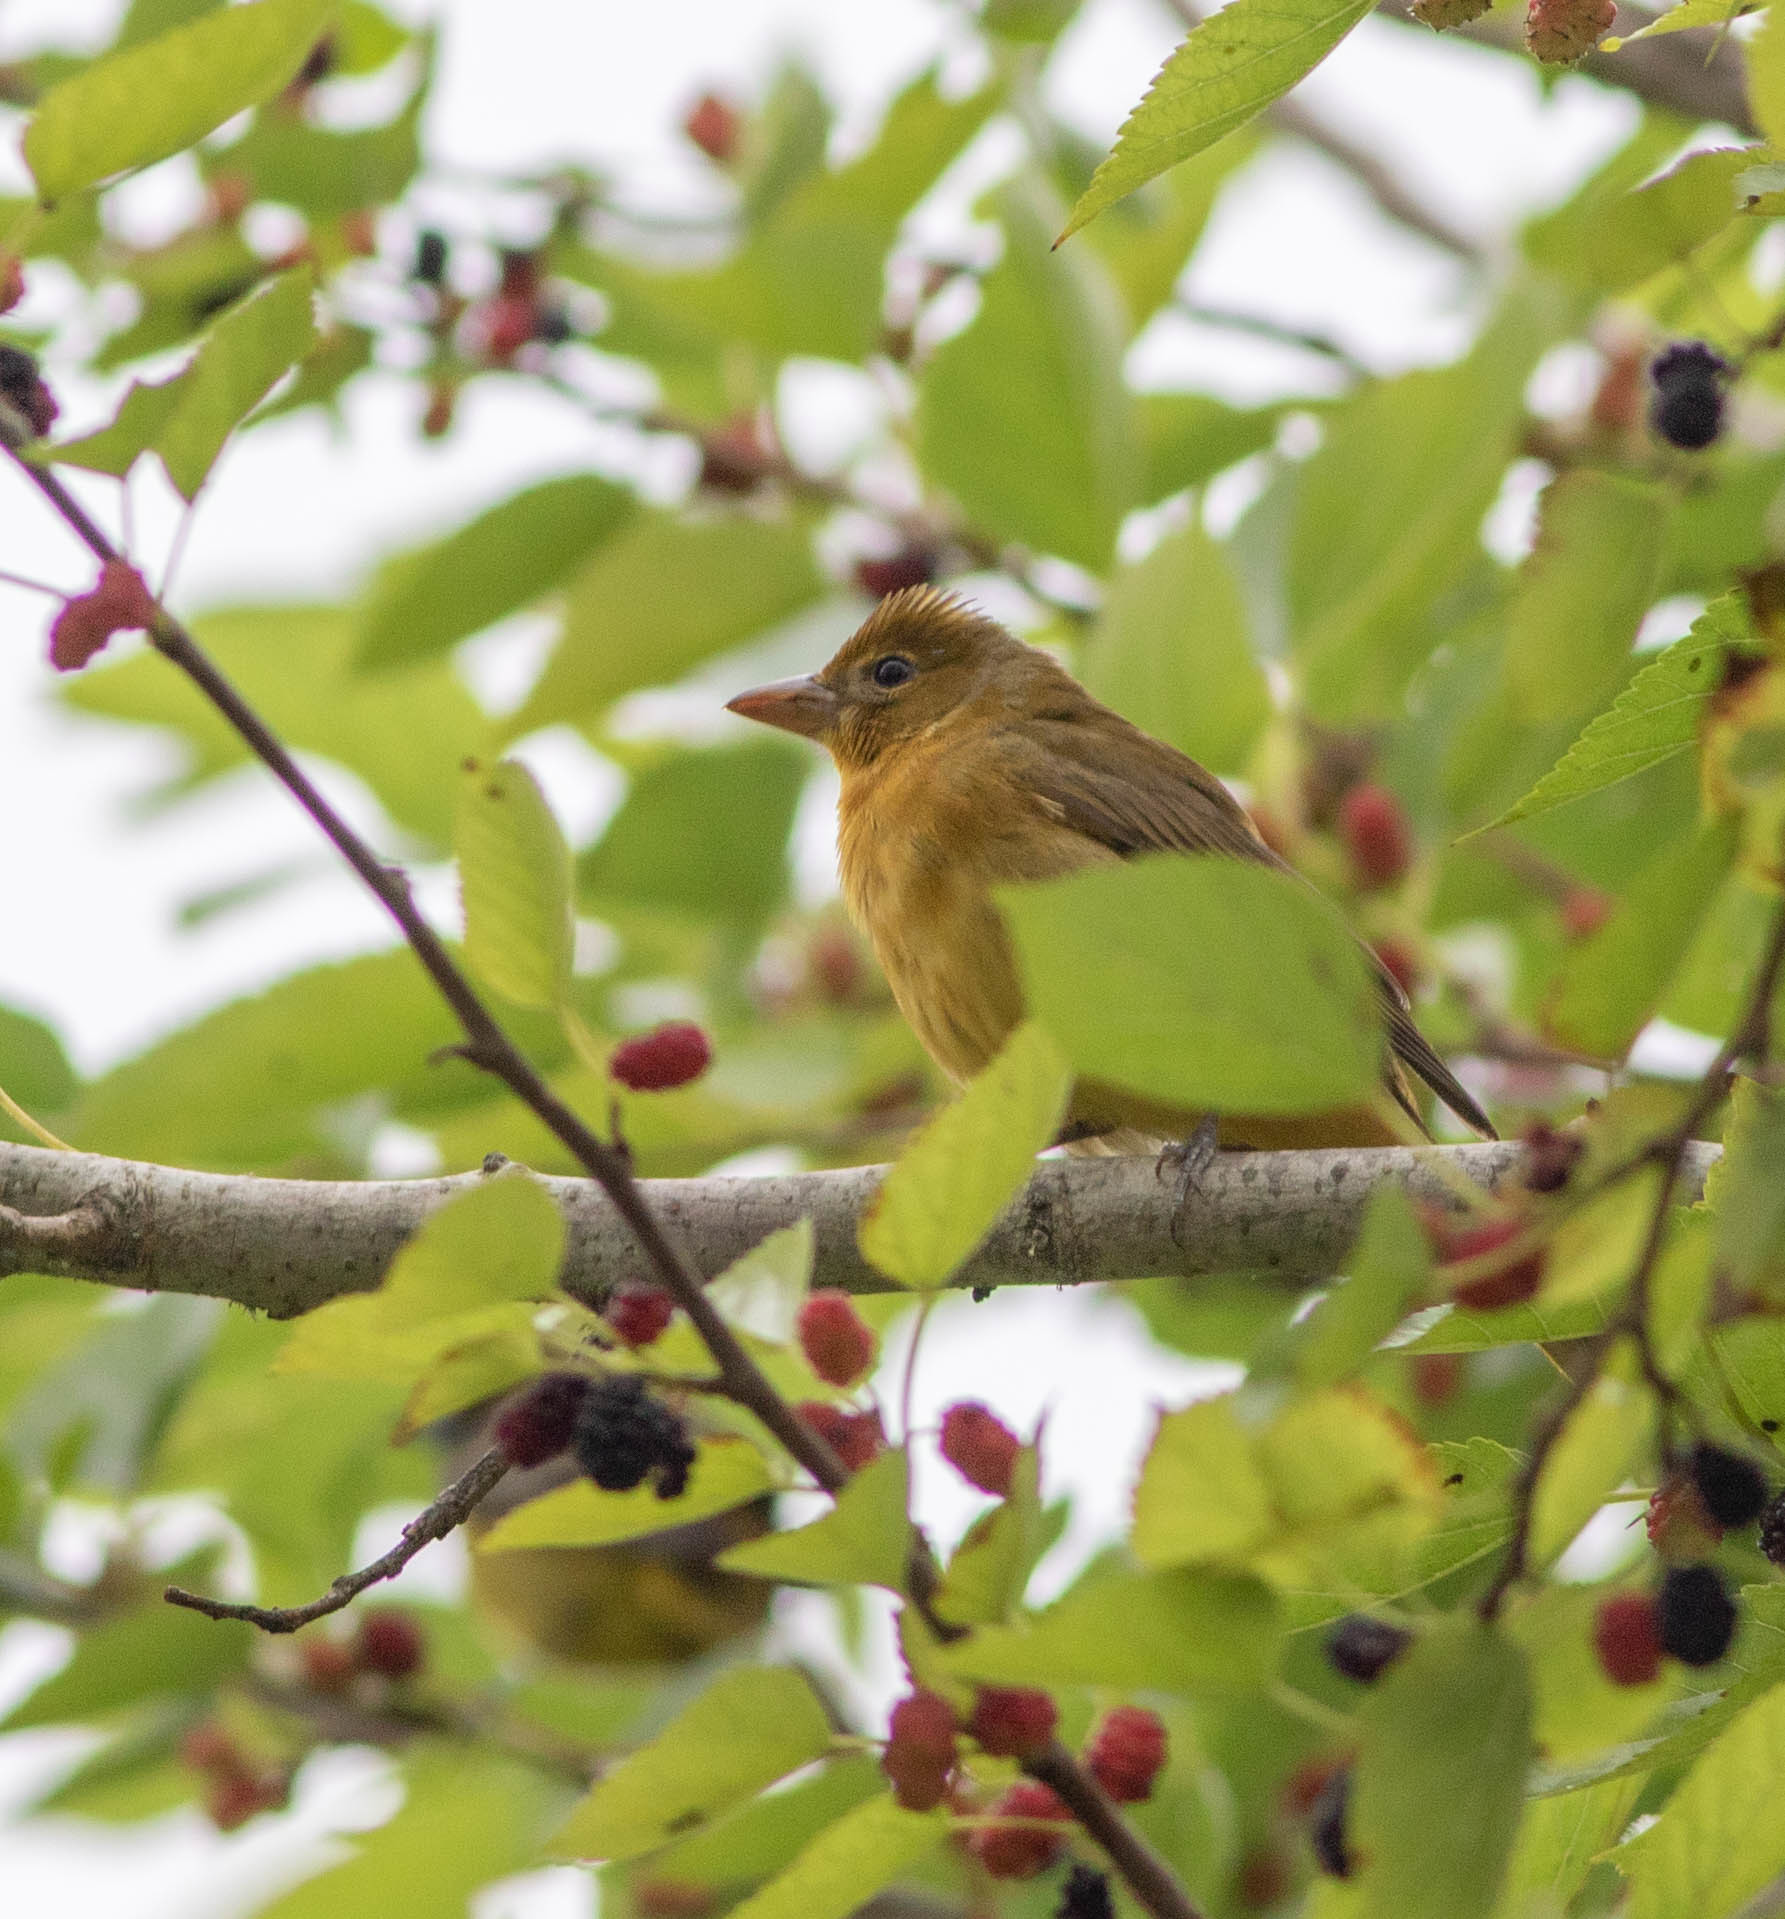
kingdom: Animalia
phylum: Chordata
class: Aves
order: Passeriformes
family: Cardinalidae
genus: Piranga
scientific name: Piranga rubra
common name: Summer tanager
